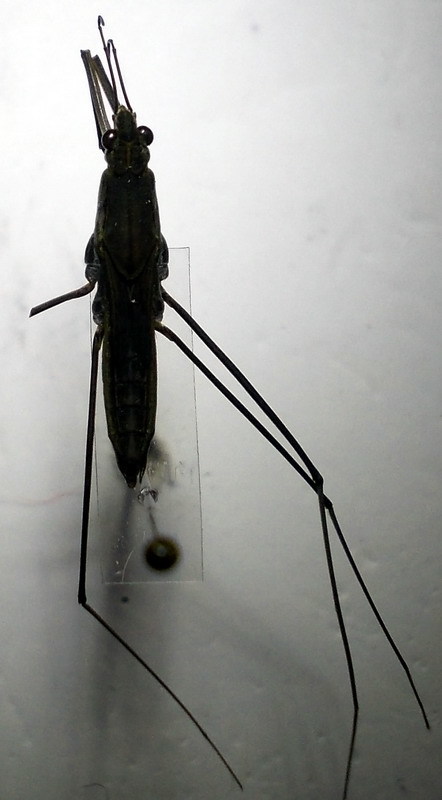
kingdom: Animalia
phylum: Arthropoda
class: Insecta
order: Hemiptera
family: Gerridae
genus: Aquarius
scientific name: Aquarius paludum
